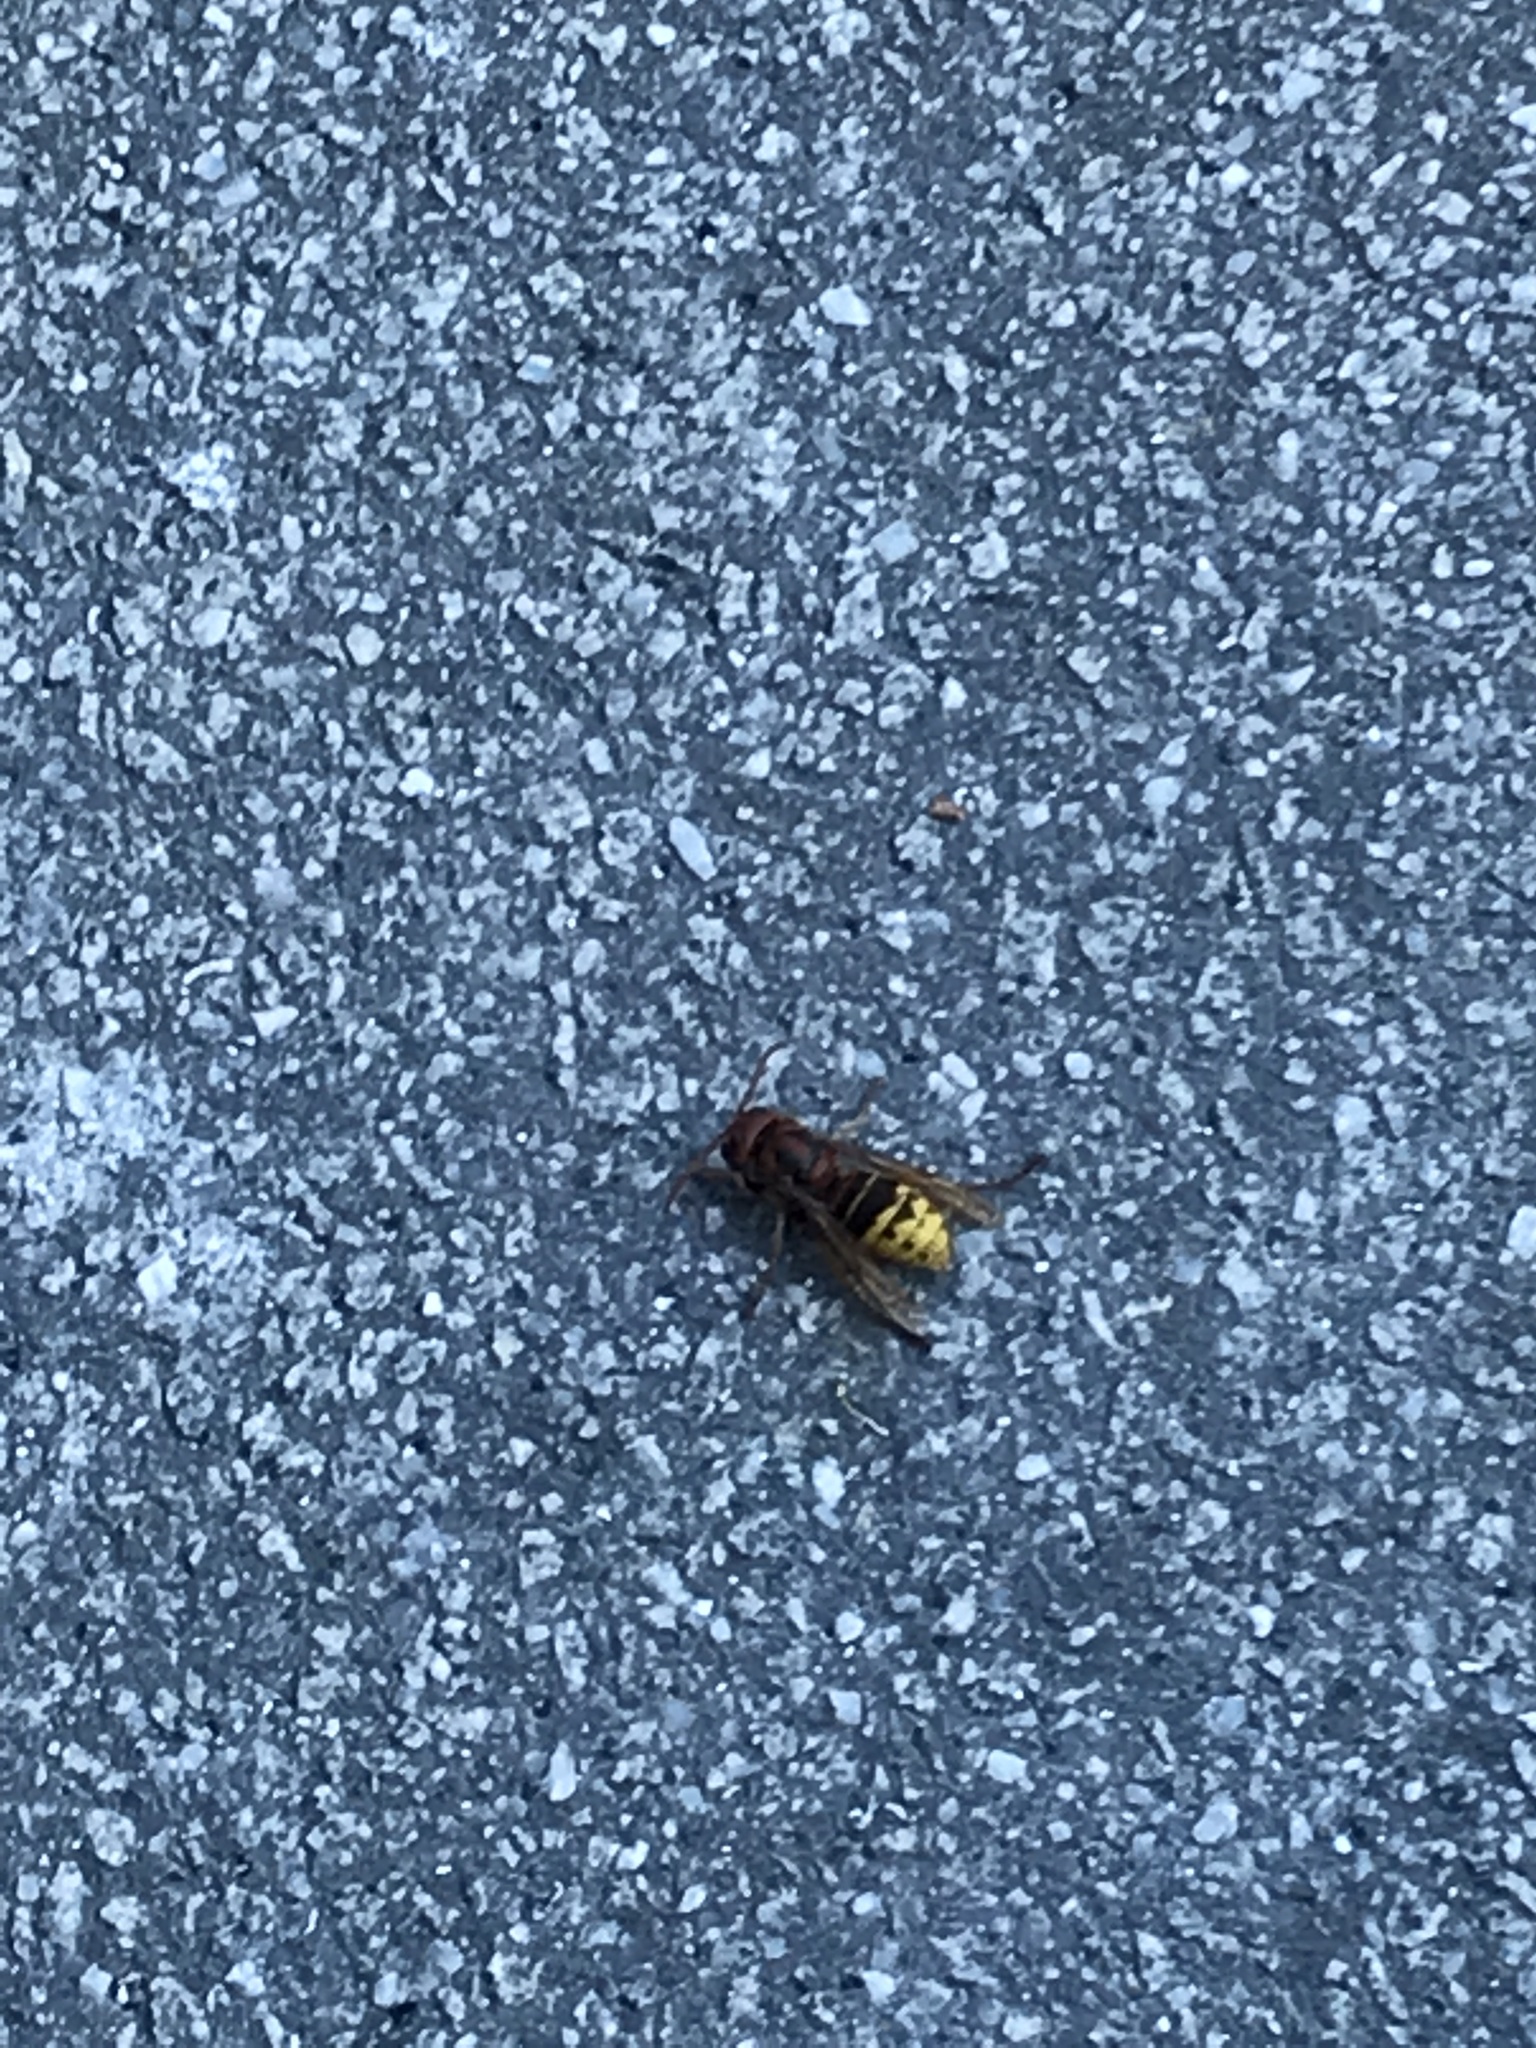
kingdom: Animalia
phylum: Arthropoda
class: Insecta
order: Hymenoptera
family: Vespidae
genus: Vespa
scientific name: Vespa crabro
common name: Hornet
